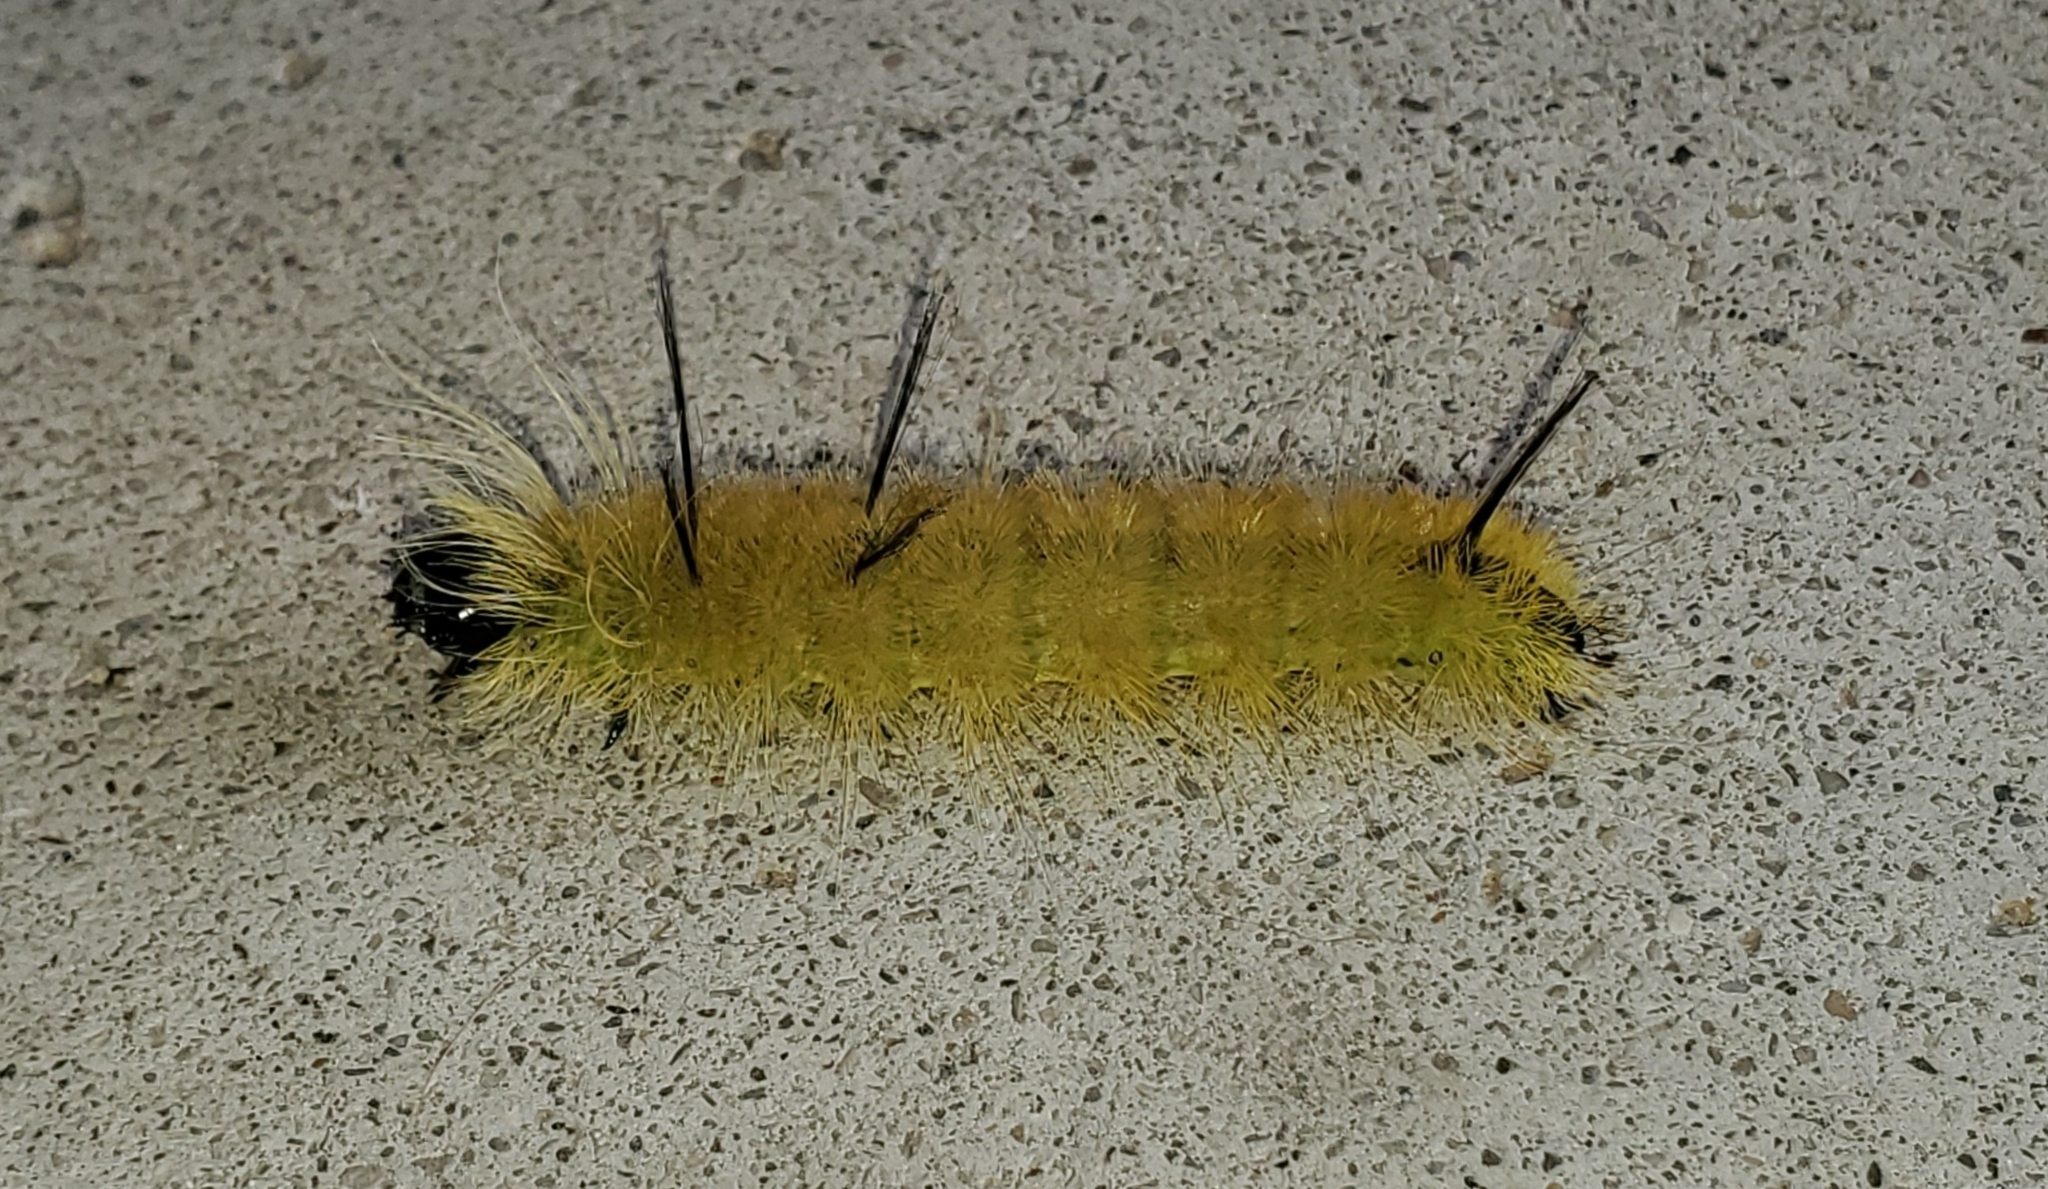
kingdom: Animalia
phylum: Arthropoda
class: Insecta
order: Lepidoptera
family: Noctuidae
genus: Acronicta
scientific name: Acronicta americana
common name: American dagger
